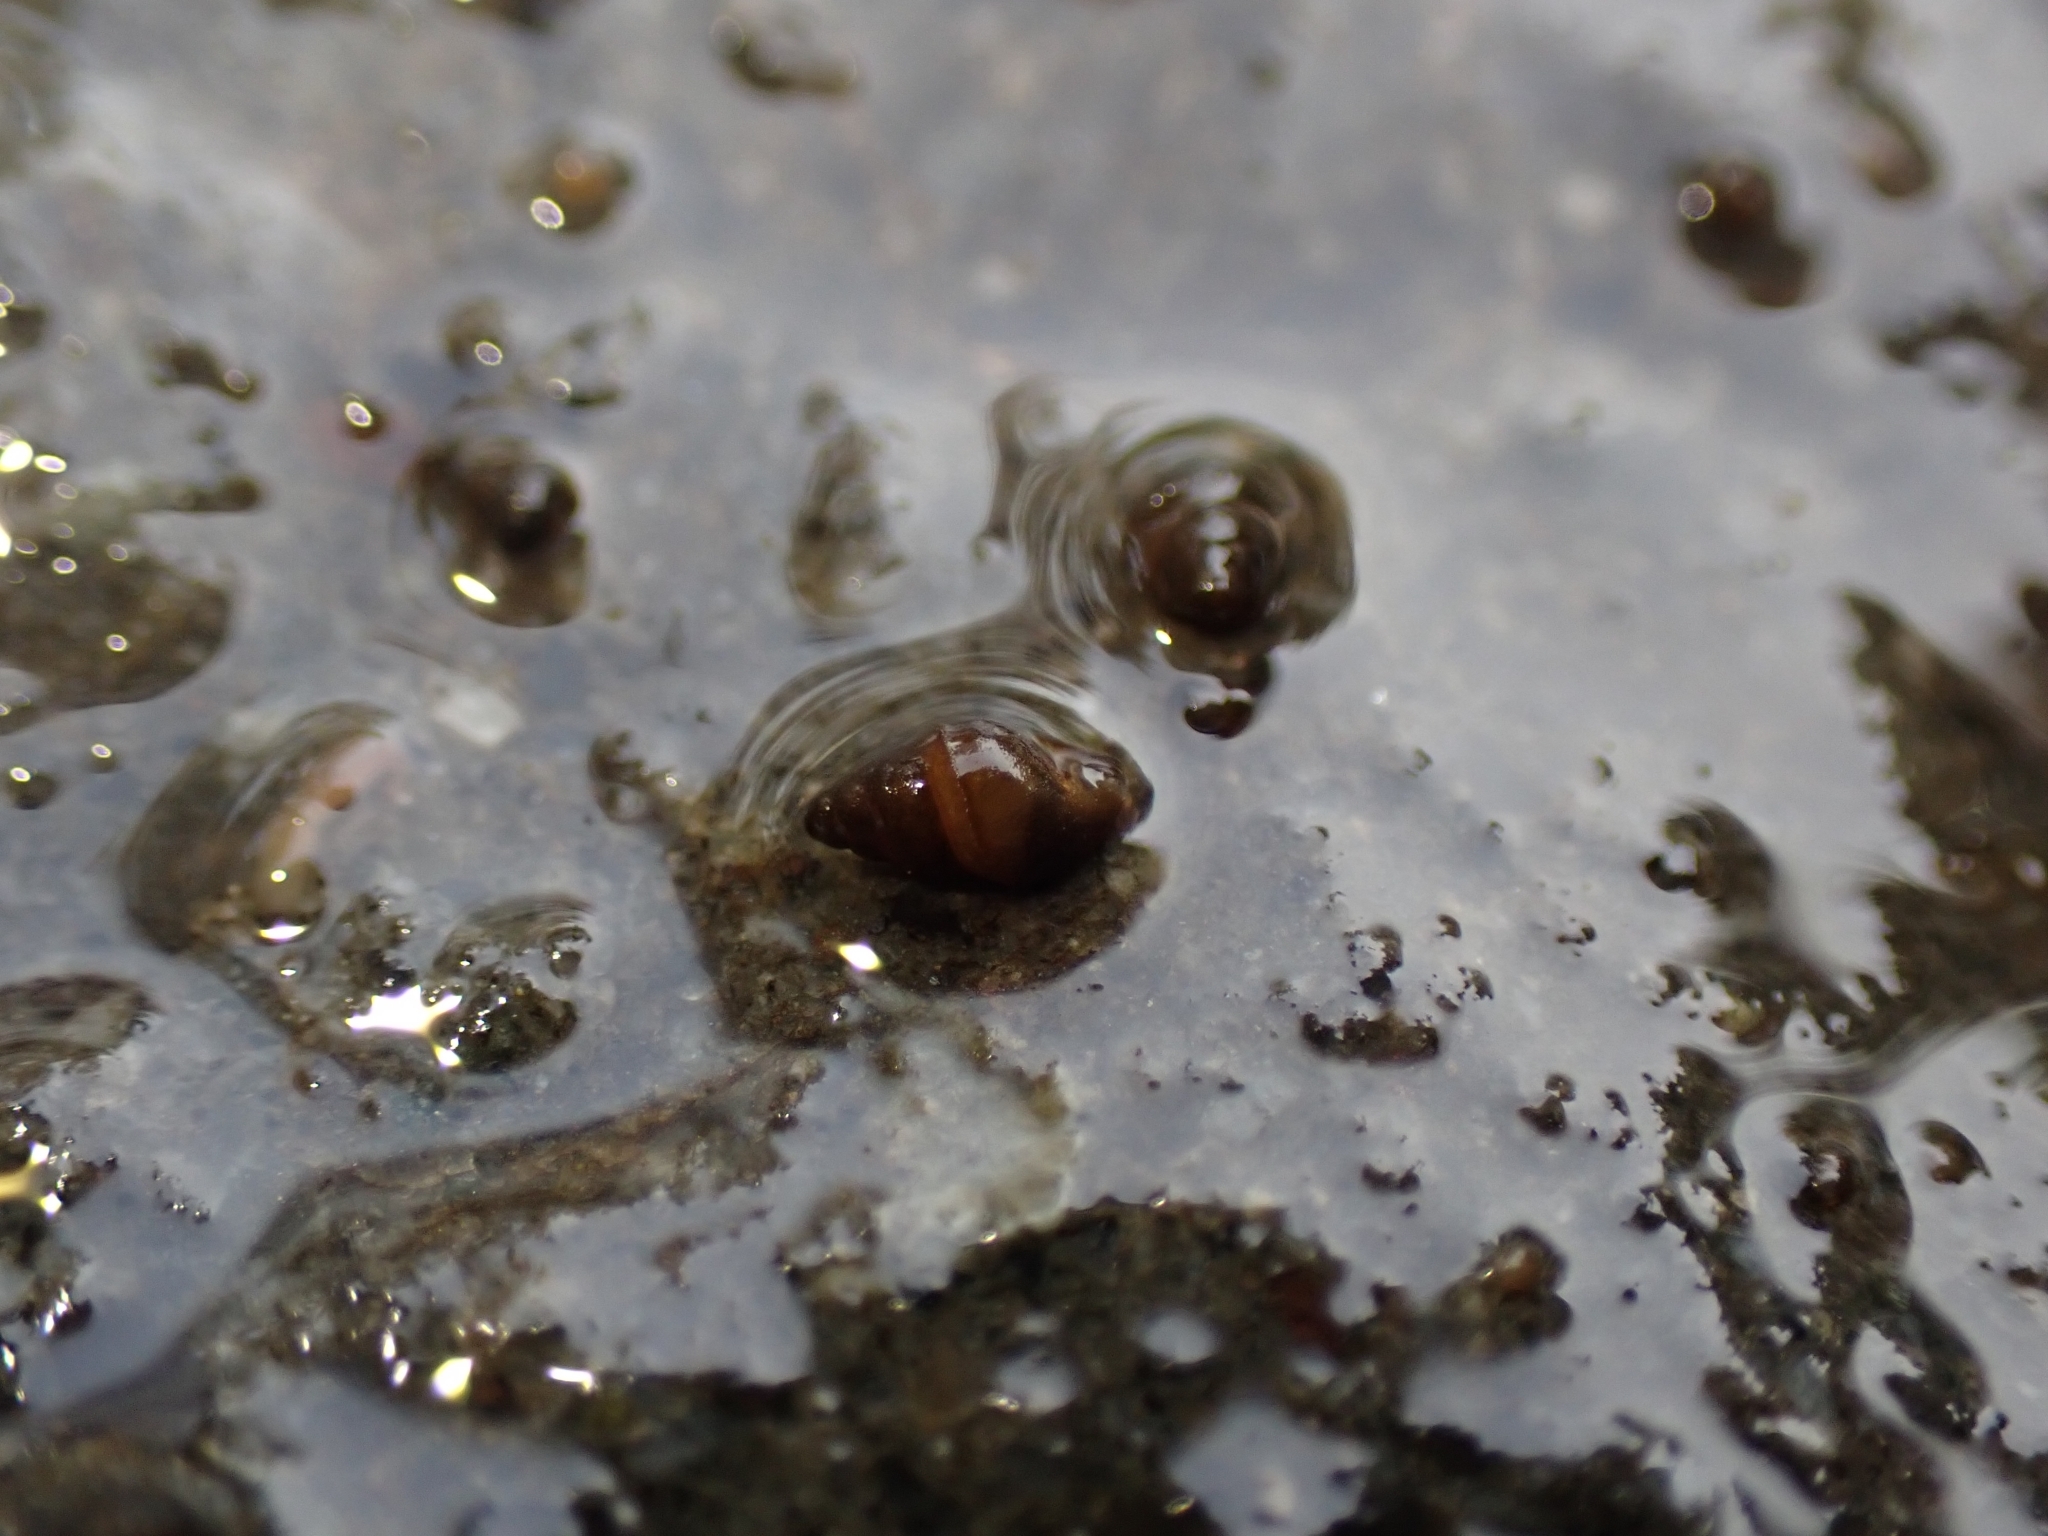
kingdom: Animalia
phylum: Mollusca
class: Gastropoda
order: Littorinimorpha
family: Tateidae
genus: Potamopyrgus
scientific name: Potamopyrgus antipodarum
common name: Jenkins' spire snail
